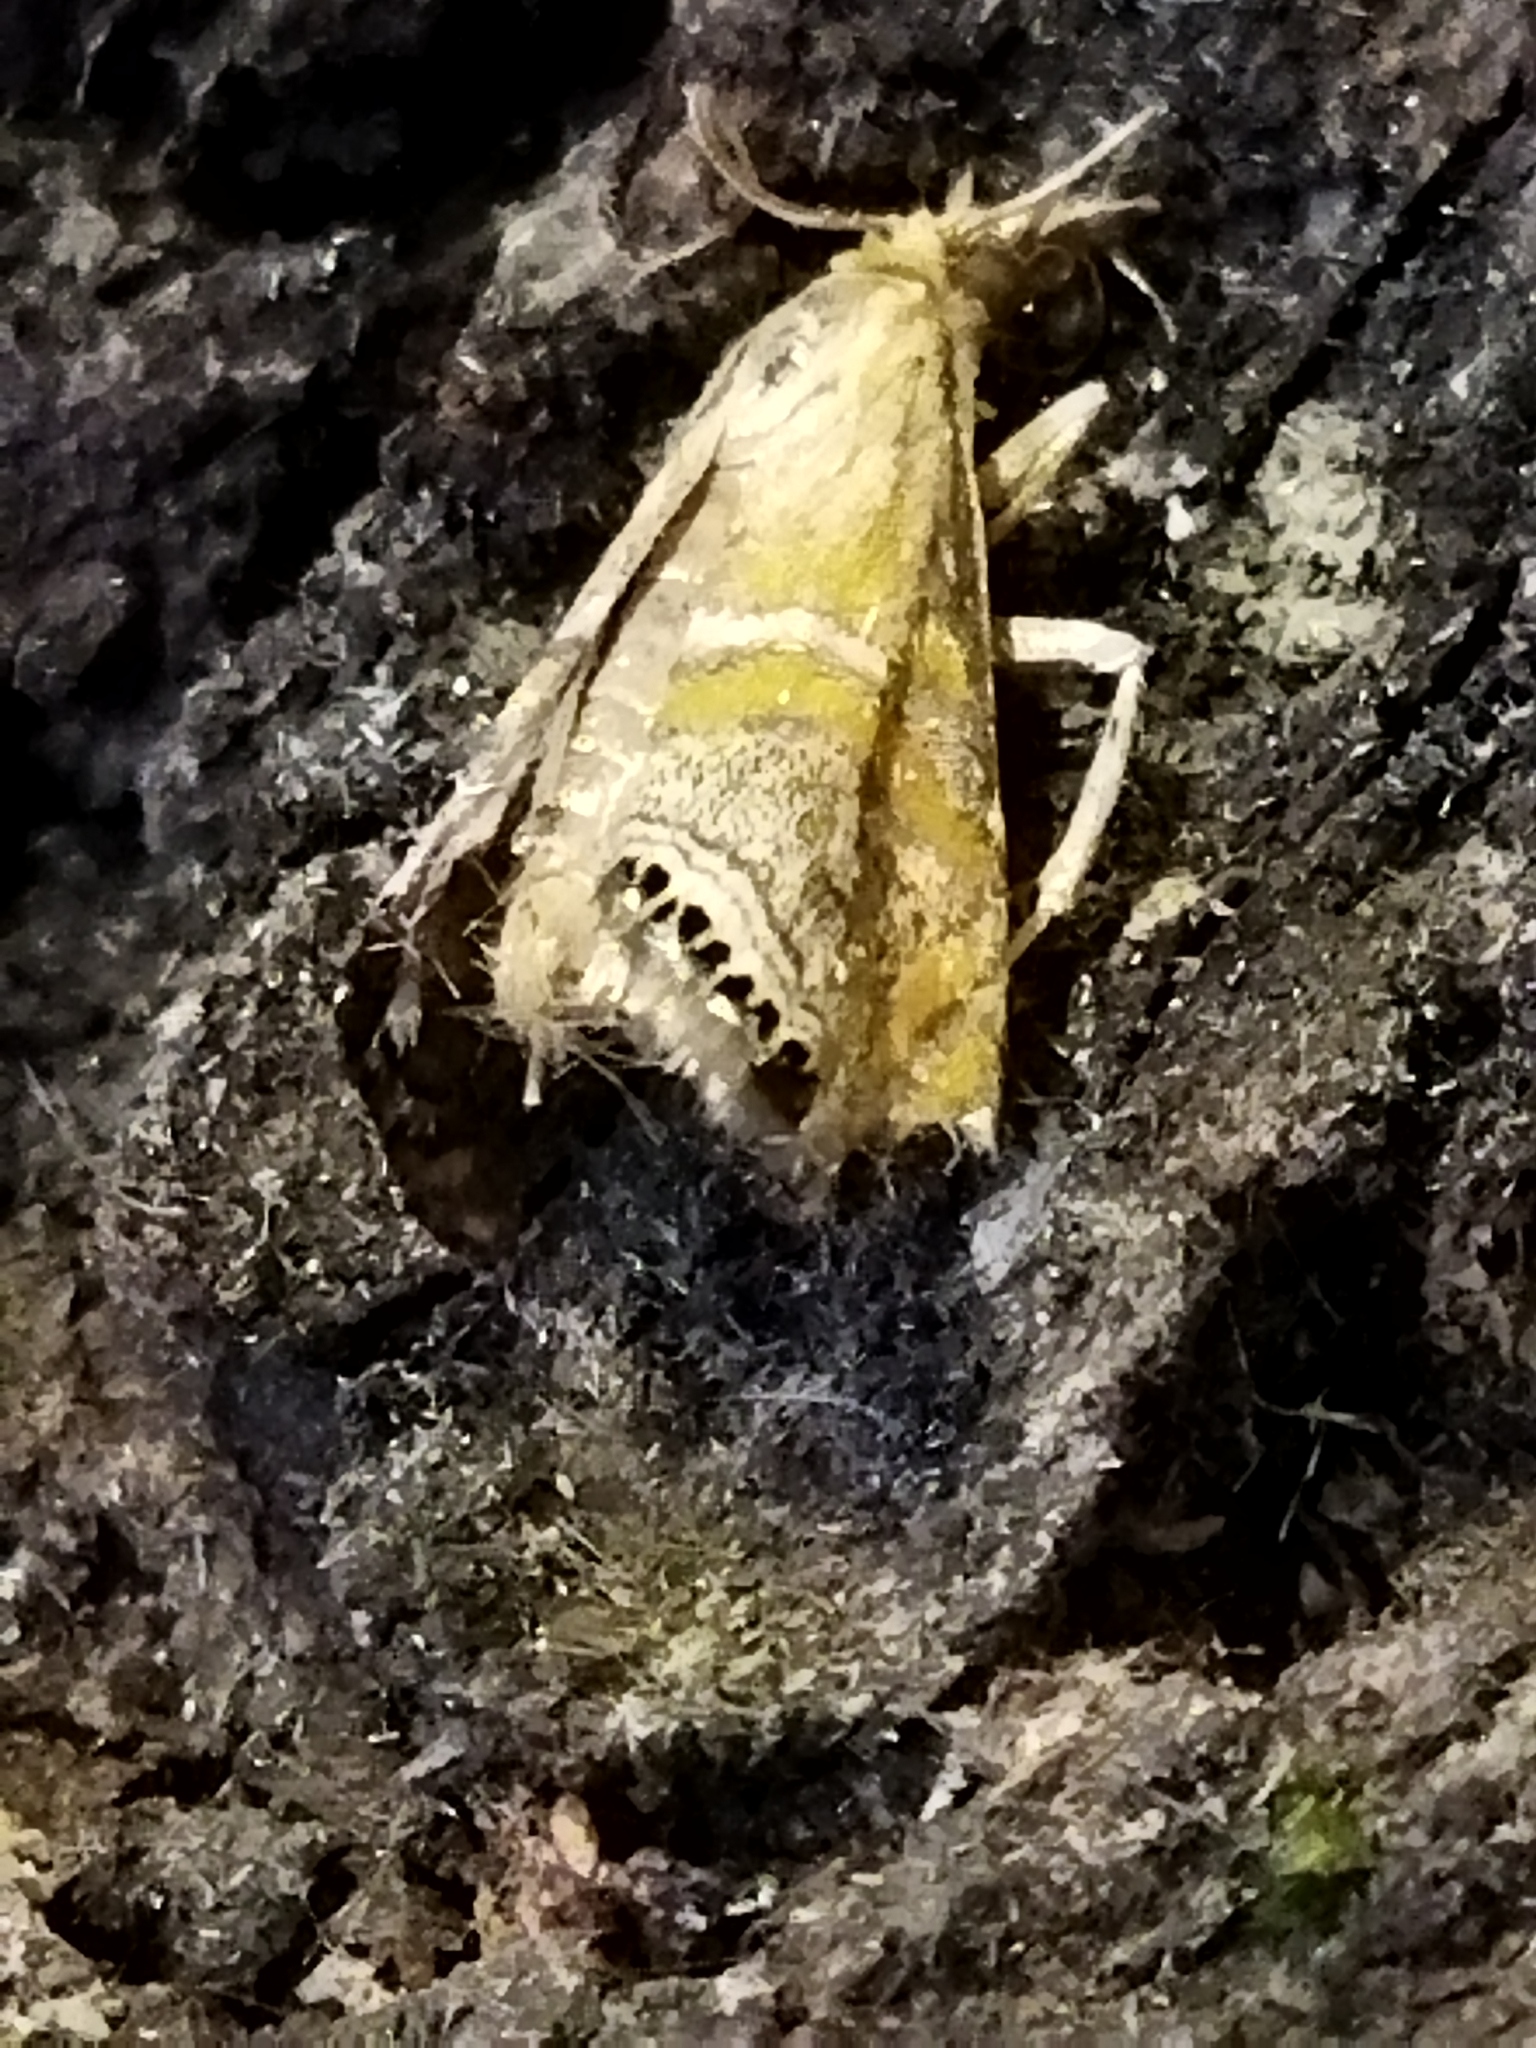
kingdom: Animalia
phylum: Arthropoda
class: Insecta
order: Lepidoptera
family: Crambidae
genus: Euchromius
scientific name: Euchromius bella
